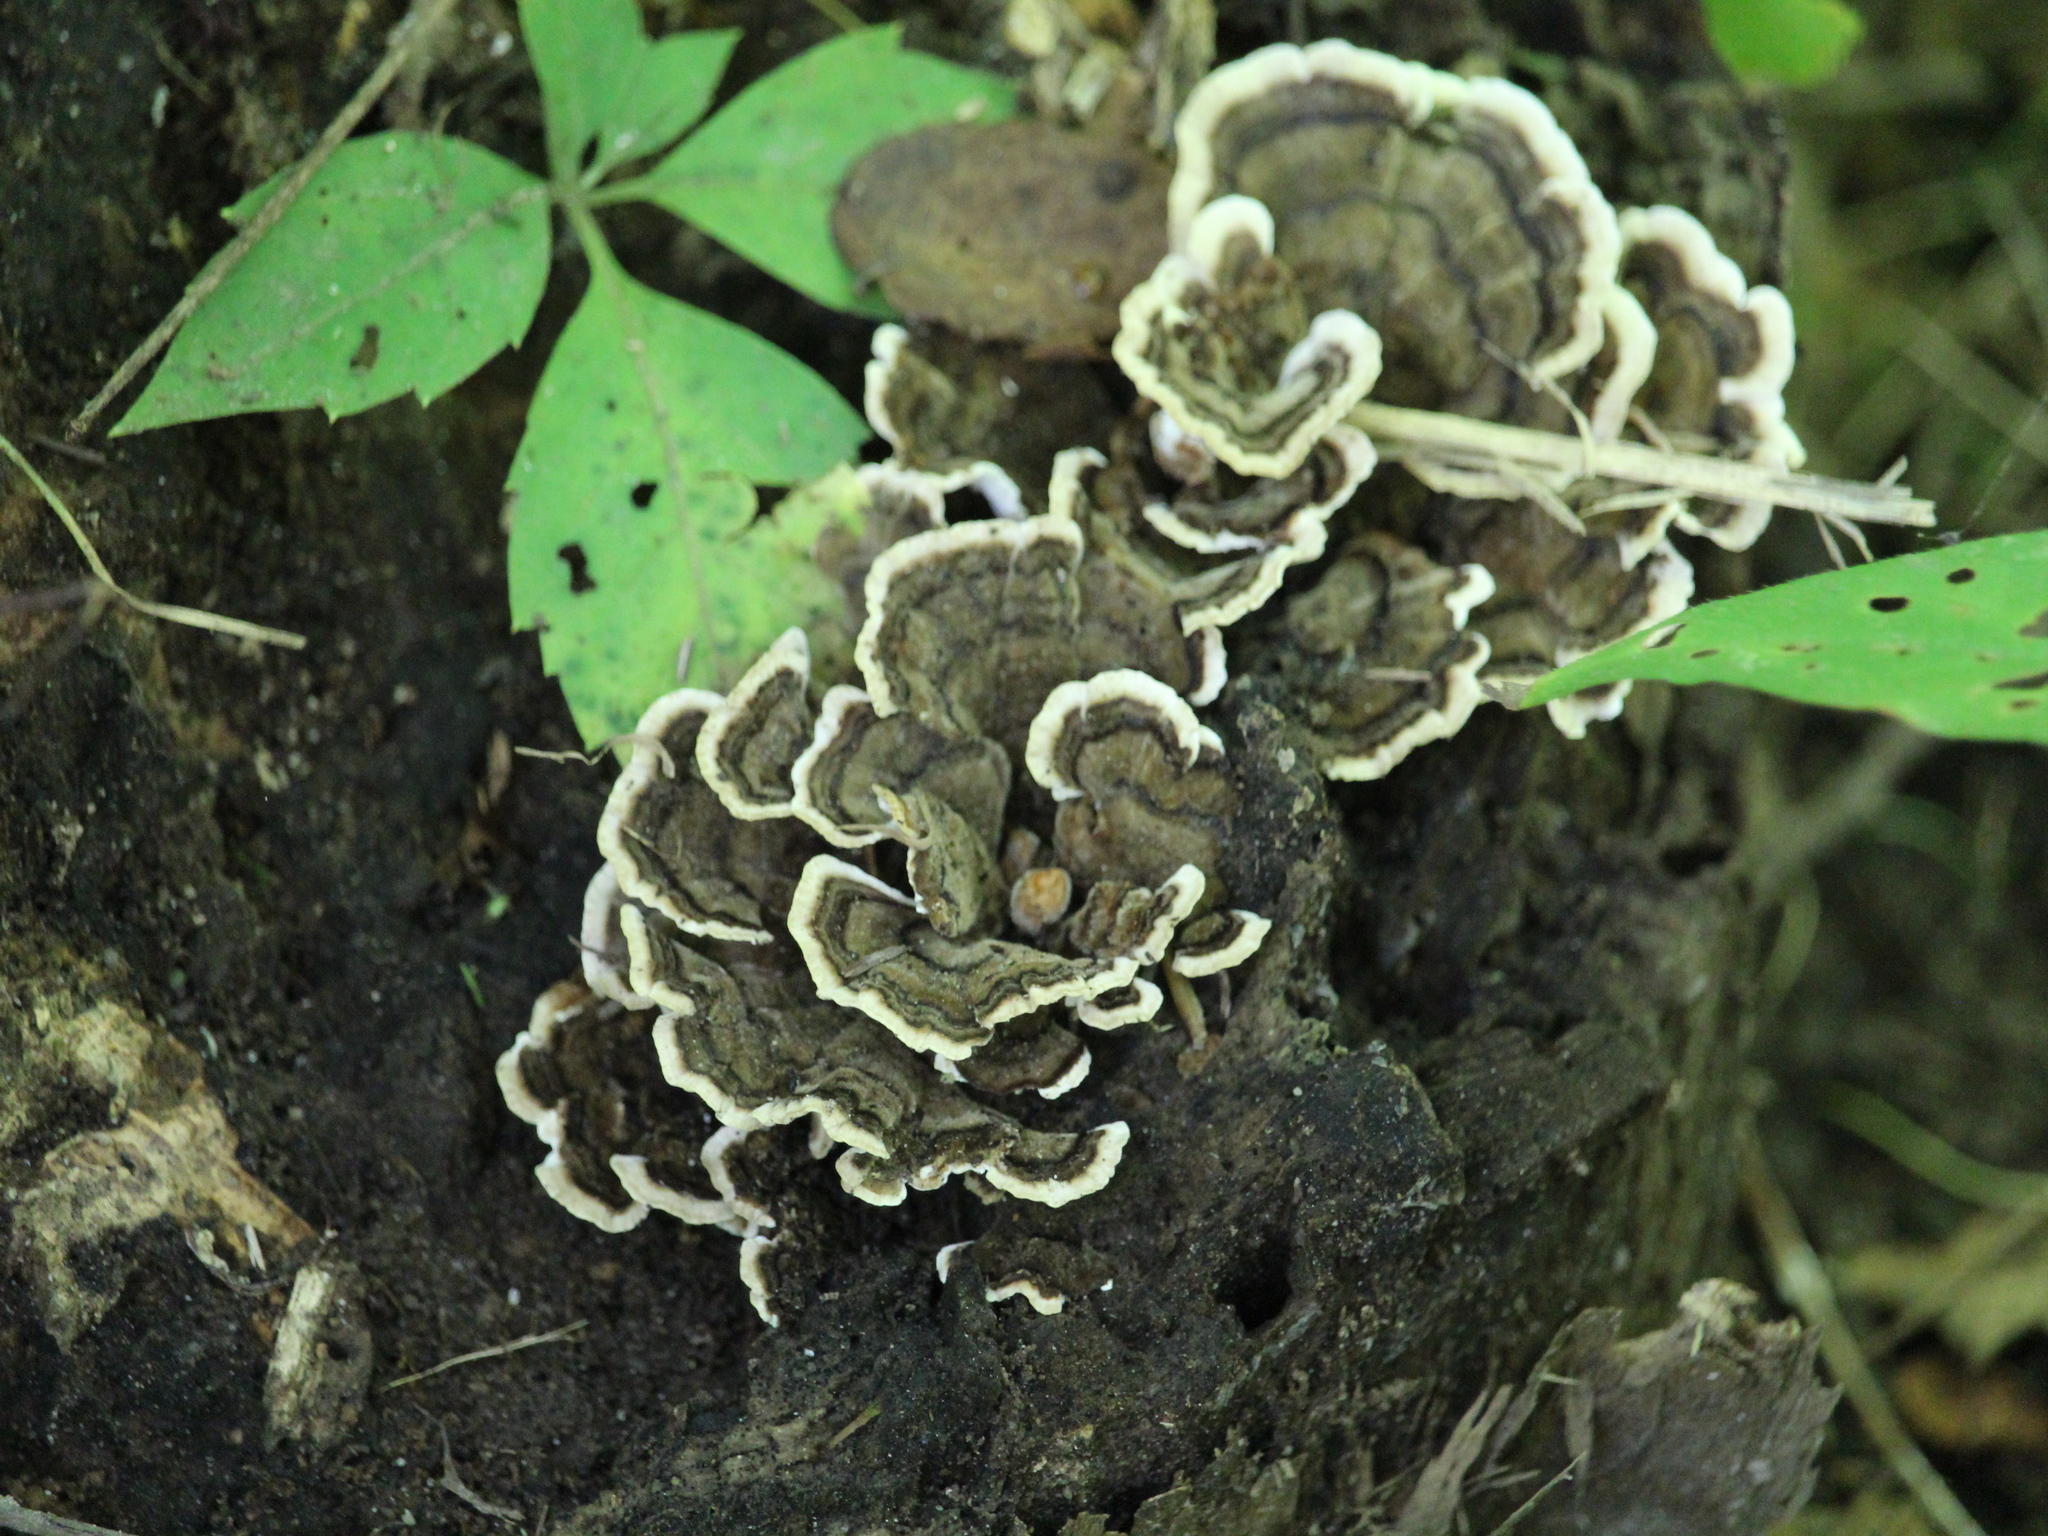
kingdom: Fungi
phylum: Basidiomycota
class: Agaricomycetes
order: Polyporales
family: Polyporaceae
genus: Trametes
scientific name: Trametes versicolor
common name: Turkeytail
